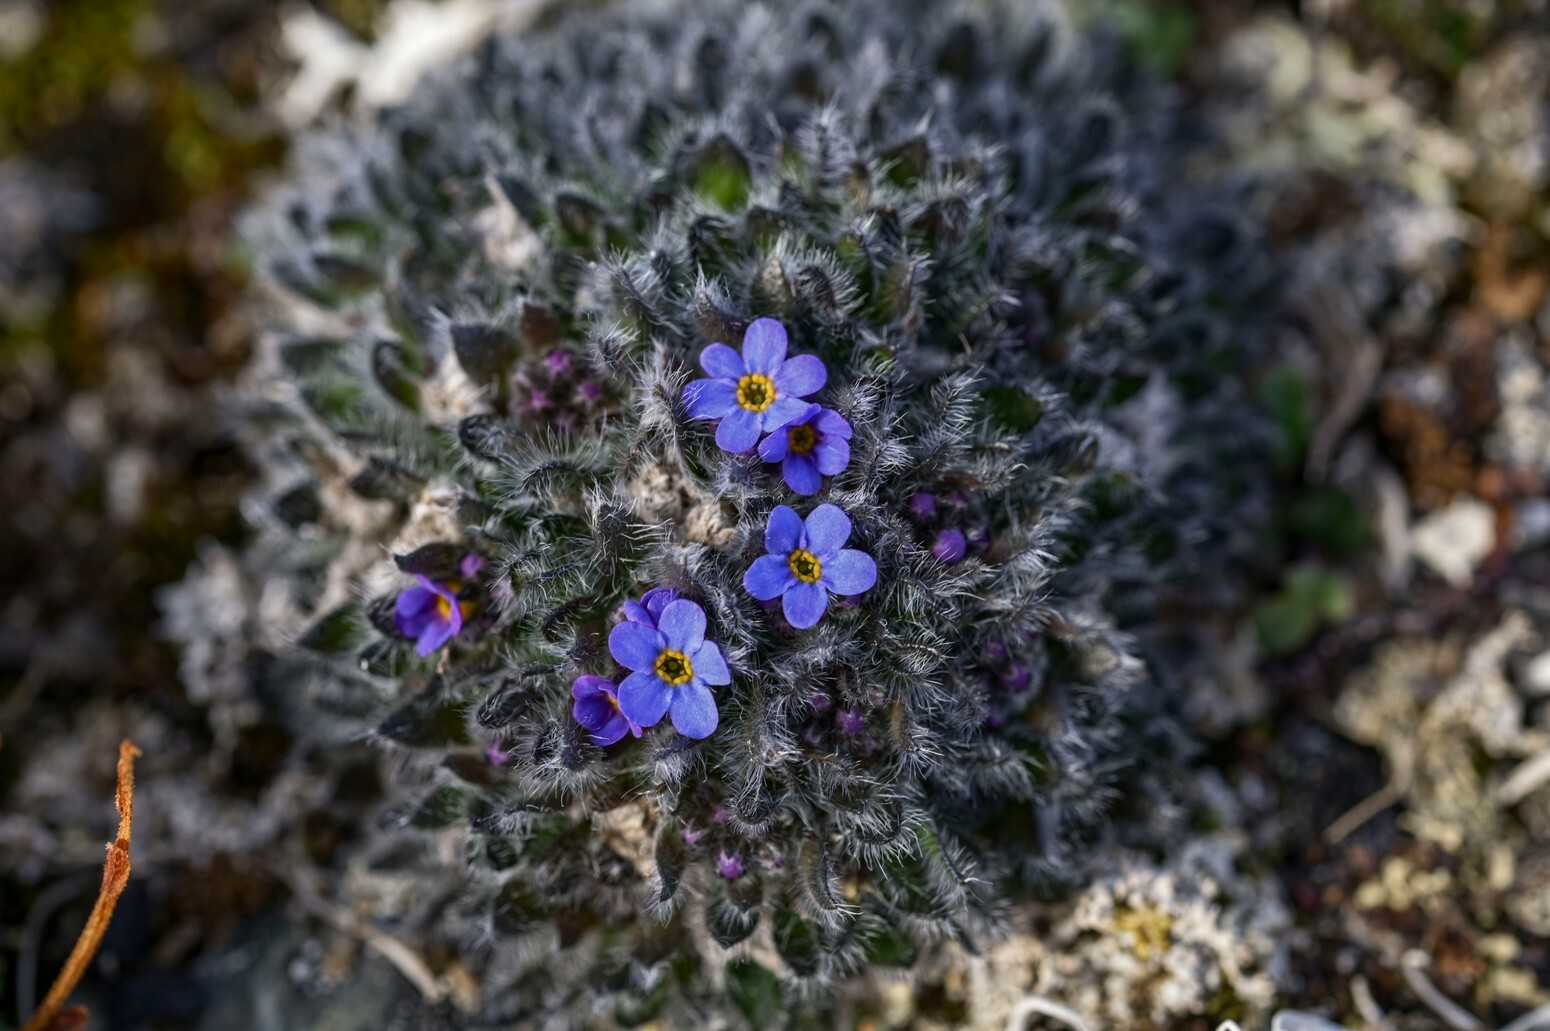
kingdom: Plantae
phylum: Tracheophyta
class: Magnoliopsida
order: Boraginales
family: Boraginaceae
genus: Eritrichium
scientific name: Eritrichium pulvinatum
